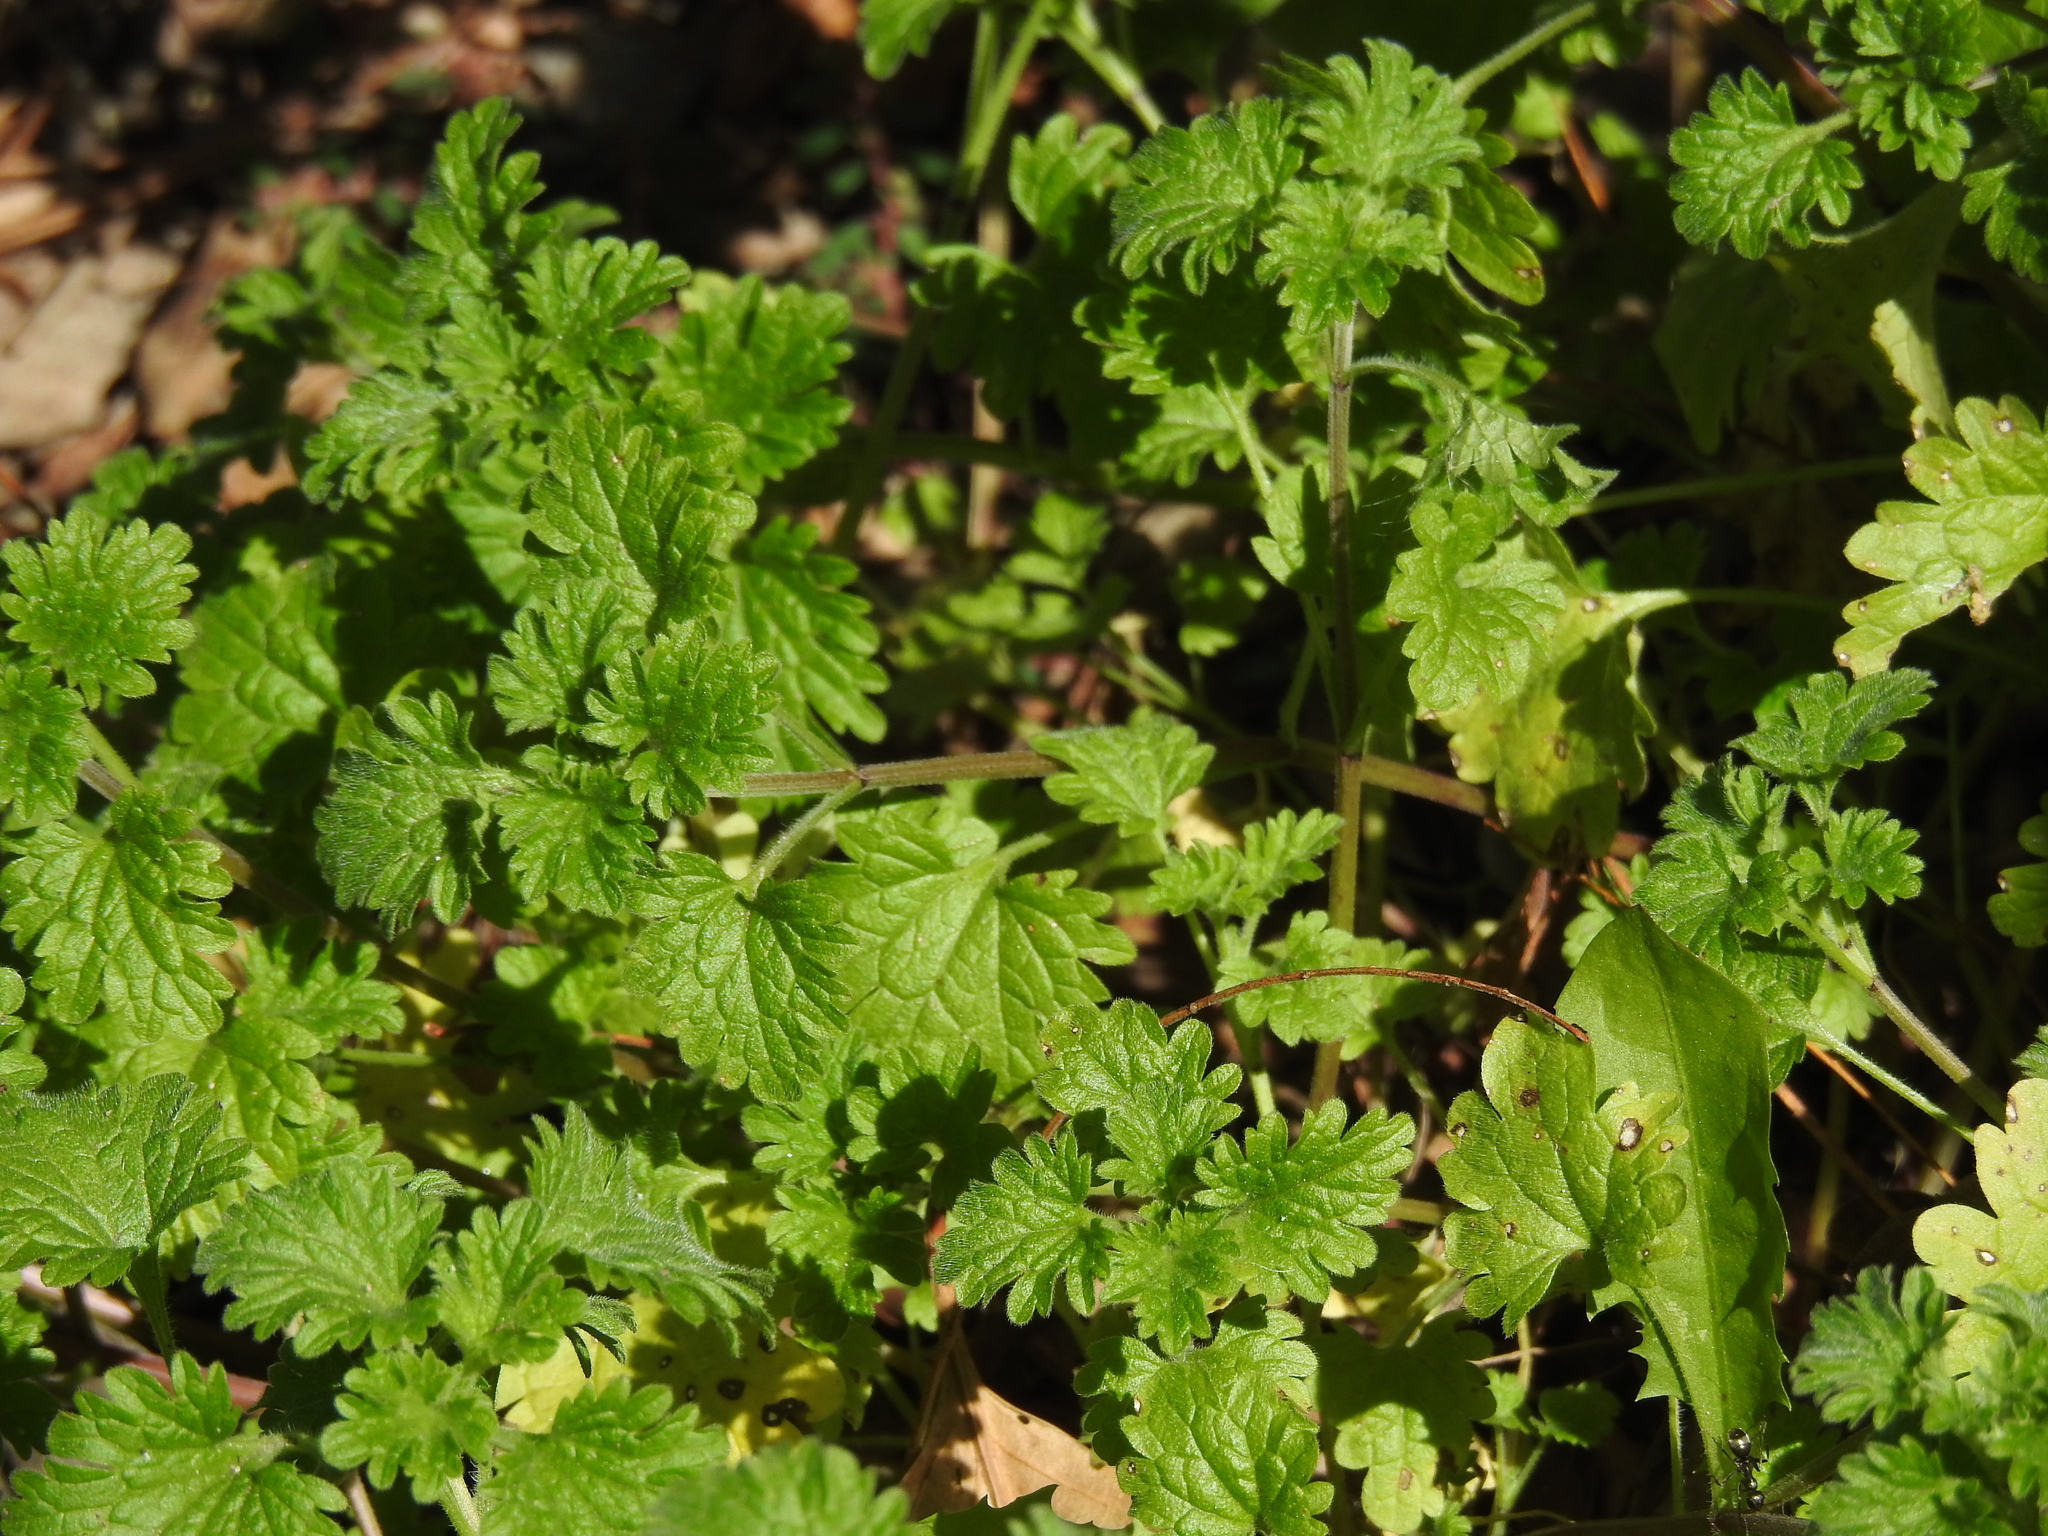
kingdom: Plantae
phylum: Tracheophyta
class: Magnoliopsida
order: Lamiales
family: Lamiaceae
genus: Lamium
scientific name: Lamium amplexicaule
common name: Henbit dead-nettle
